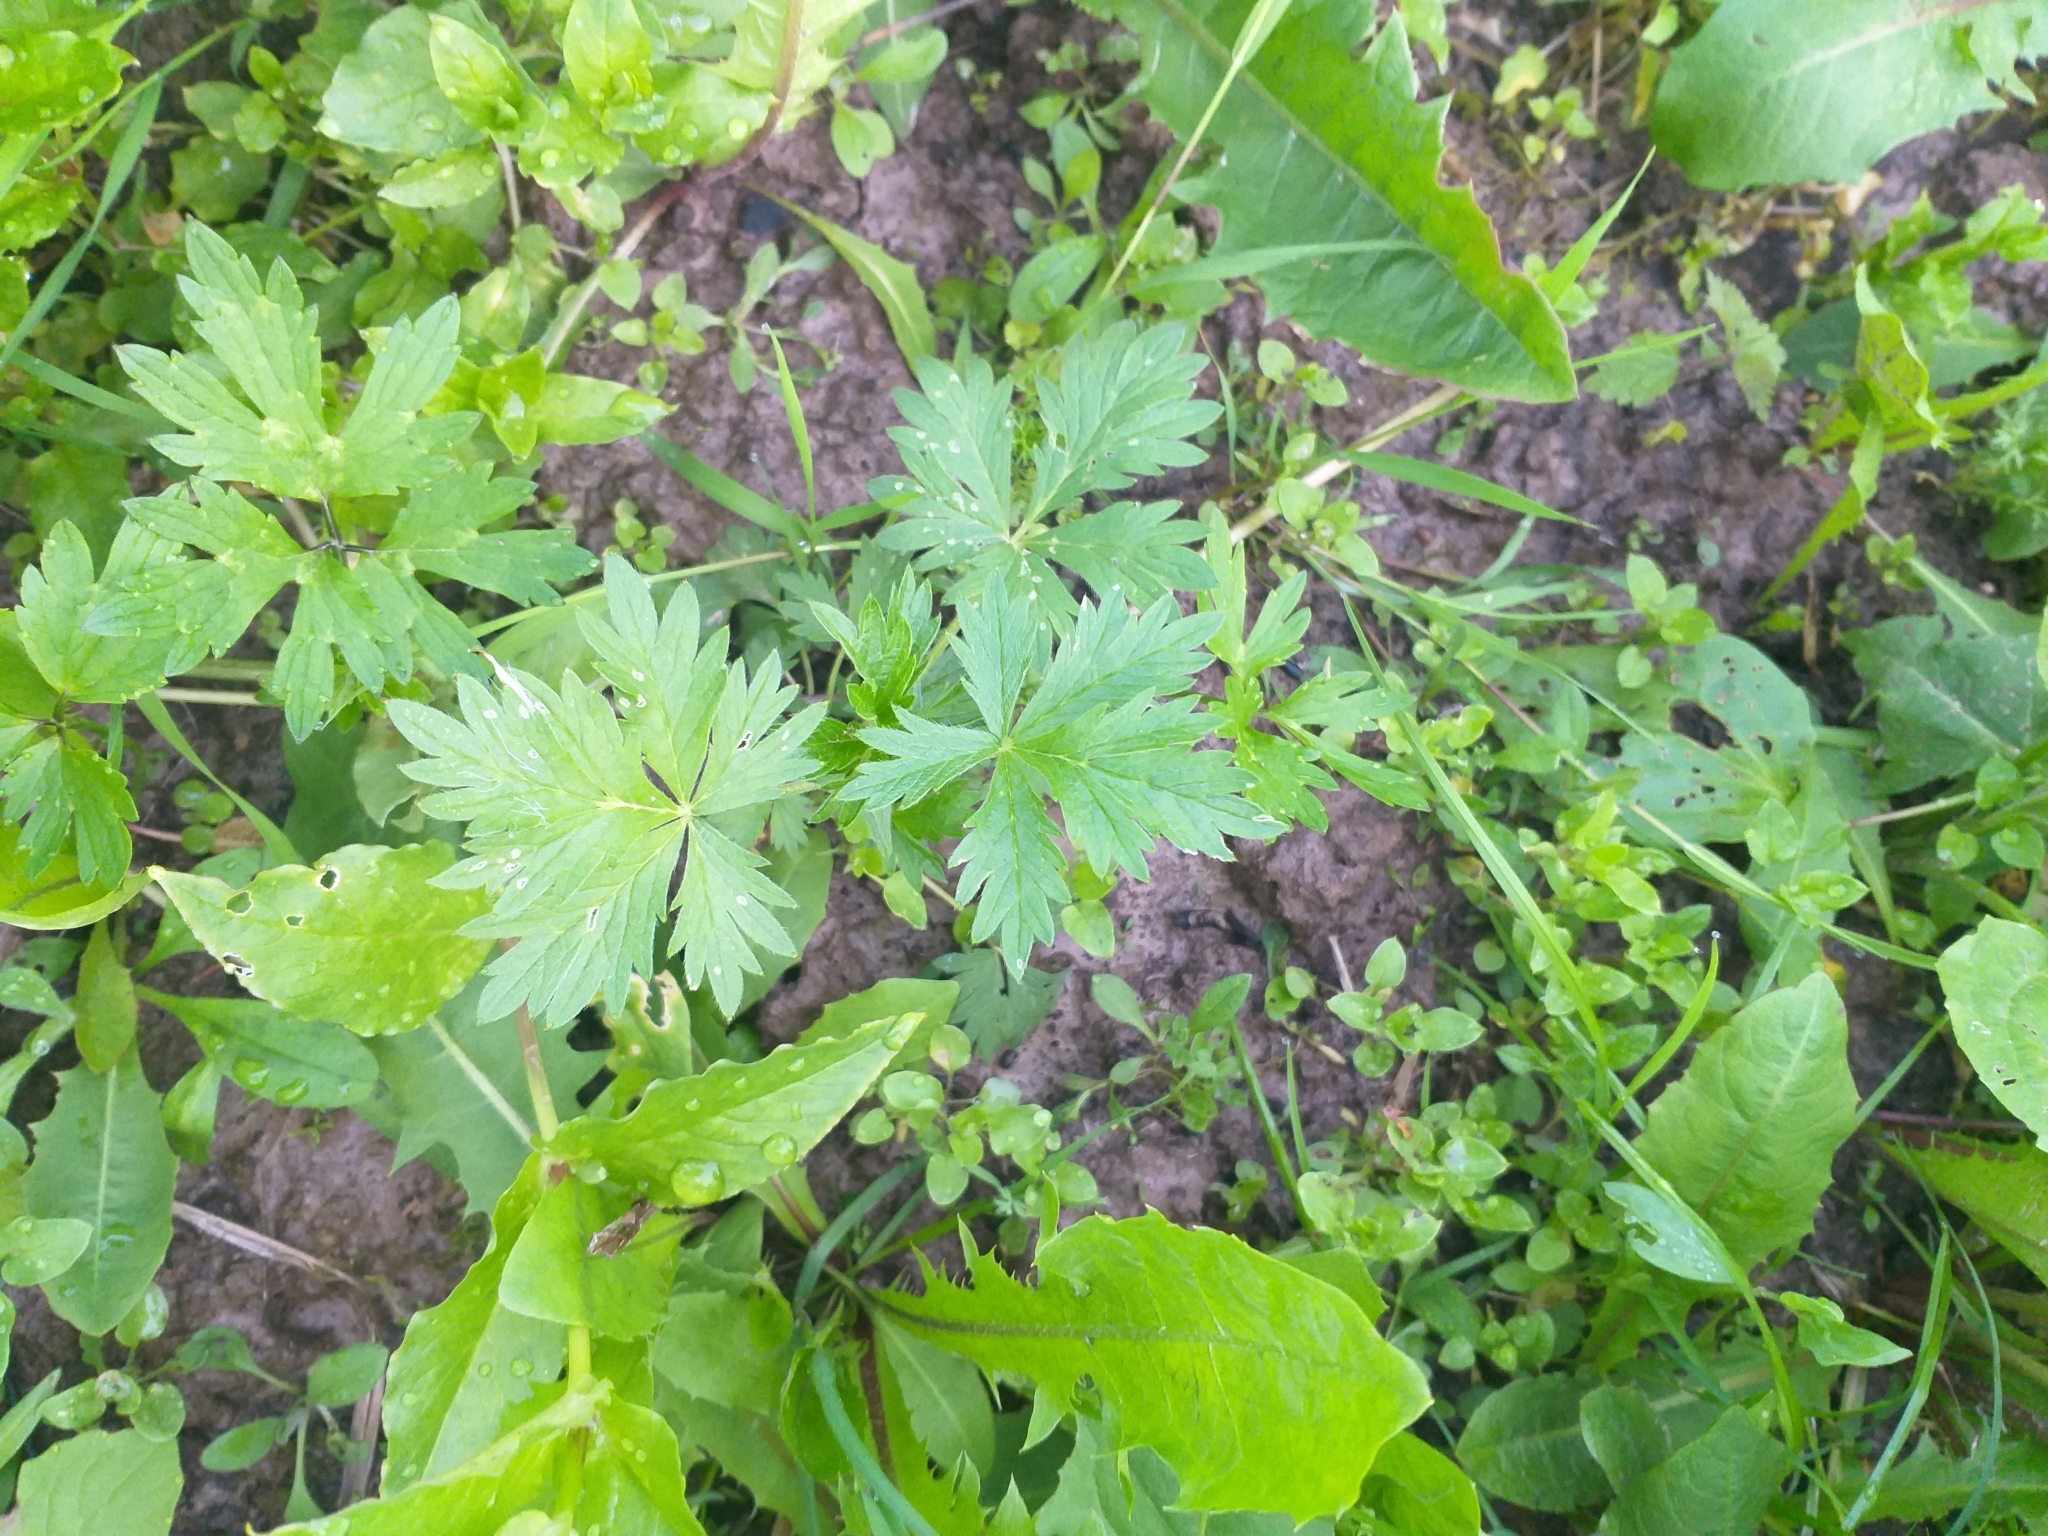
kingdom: Plantae
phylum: Tracheophyta
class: Magnoliopsida
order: Rosales
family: Rosaceae
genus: Potentilla
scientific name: Potentilla intermedia
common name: Downy cinquefoil
